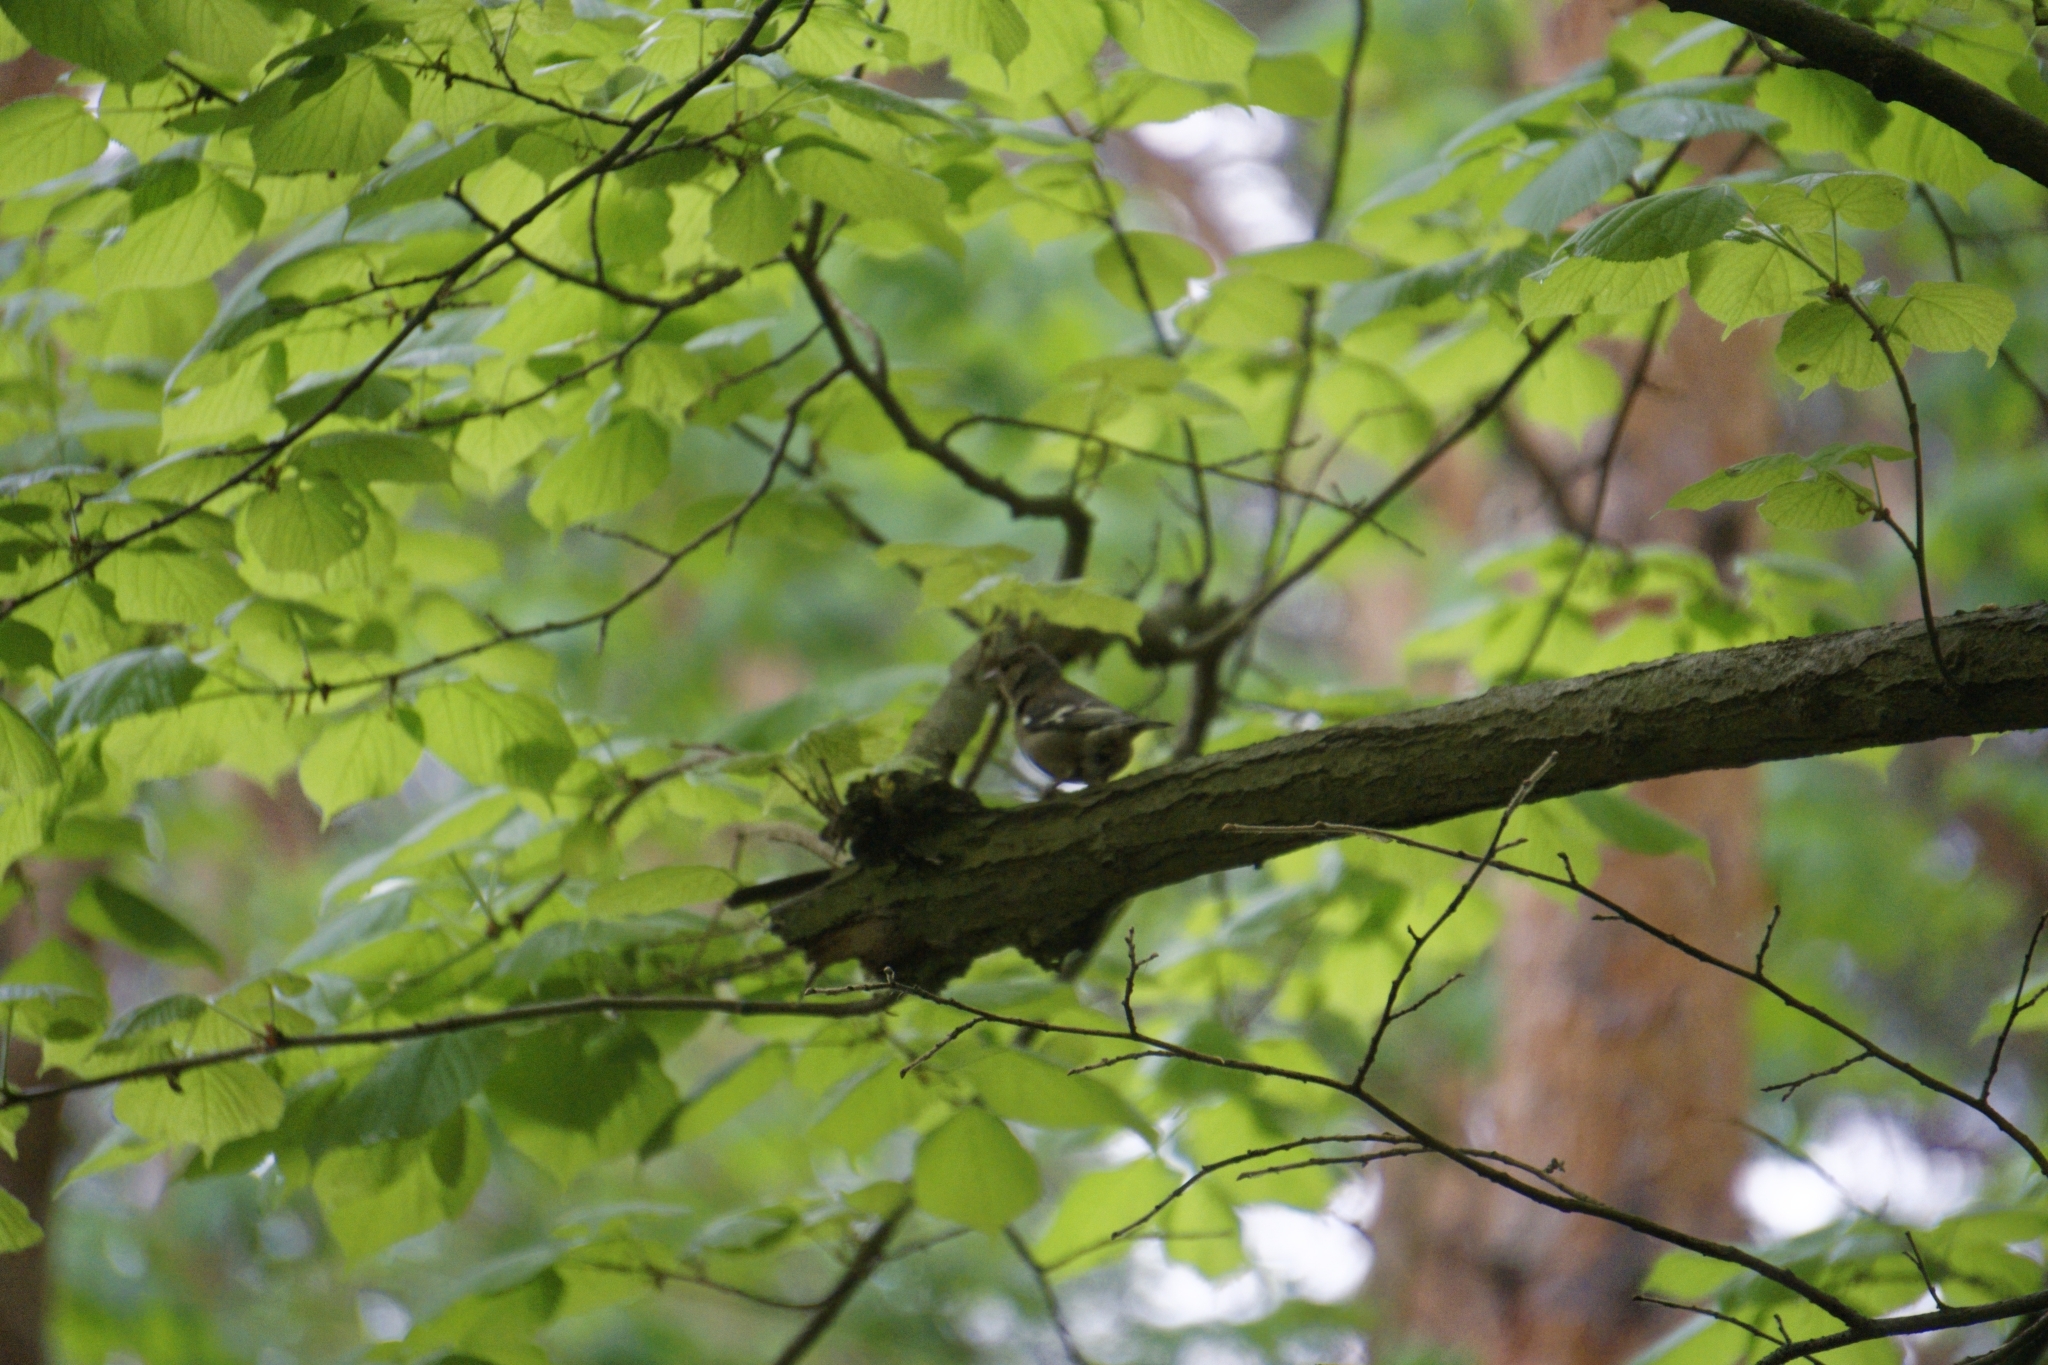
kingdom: Animalia
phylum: Chordata
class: Aves
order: Passeriformes
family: Fringillidae
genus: Fringilla
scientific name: Fringilla coelebs
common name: Common chaffinch
